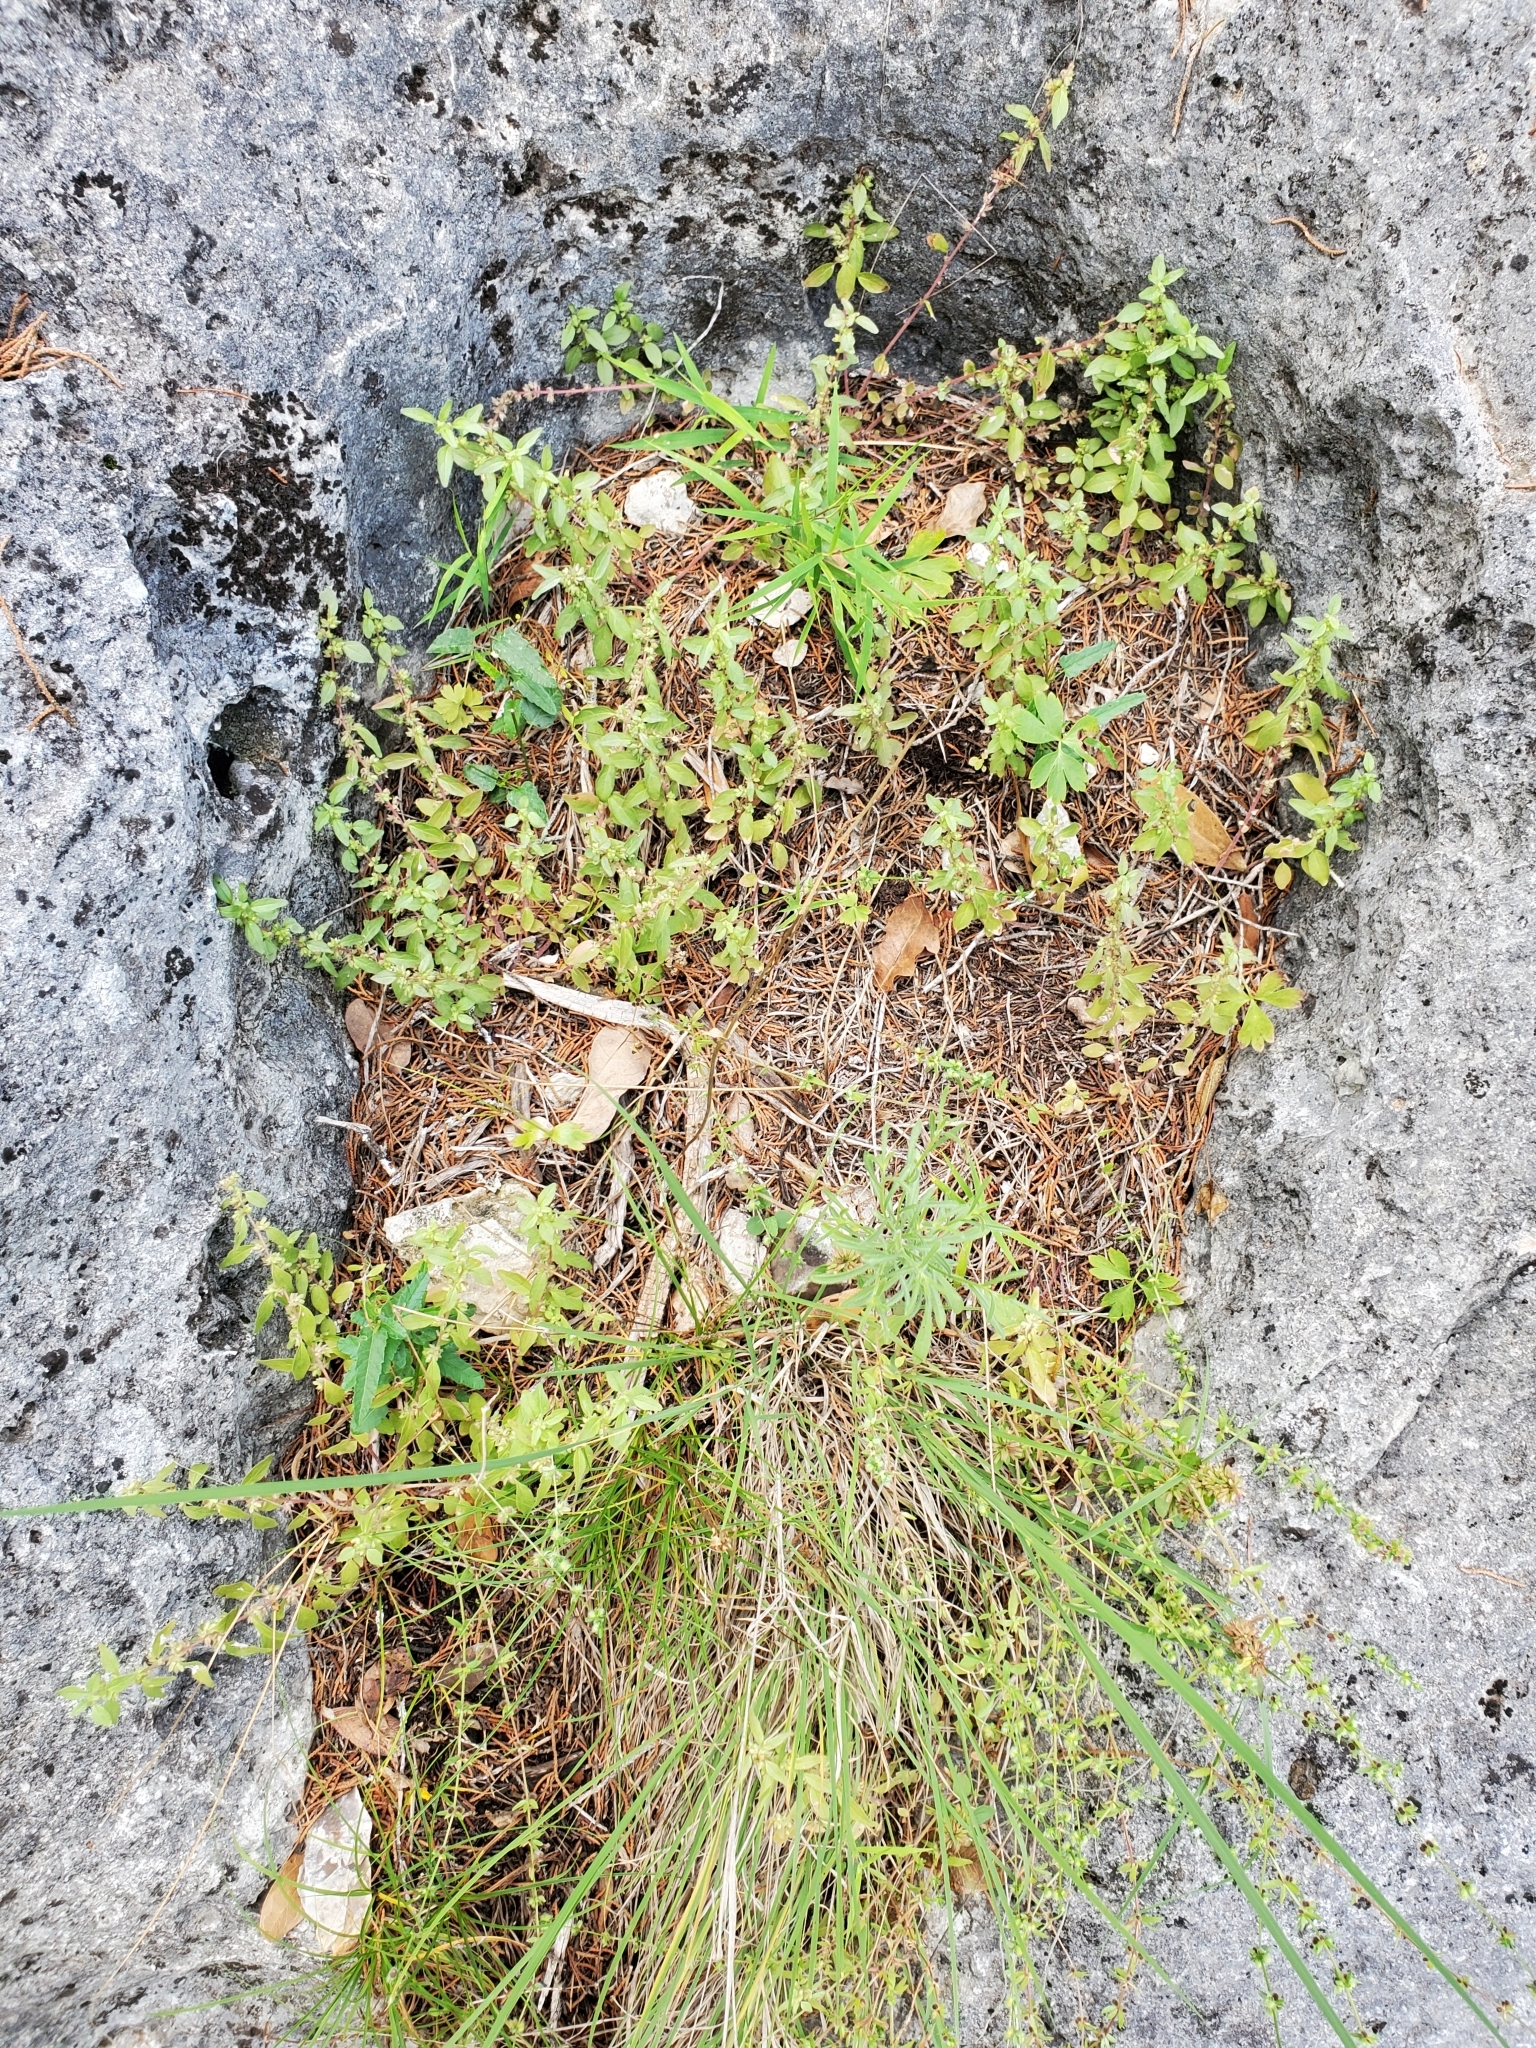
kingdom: Plantae
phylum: Tracheophyta
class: Magnoliopsida
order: Ranunculales
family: Ranunculaceae
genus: Anemone
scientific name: Anemone edwardsiana
